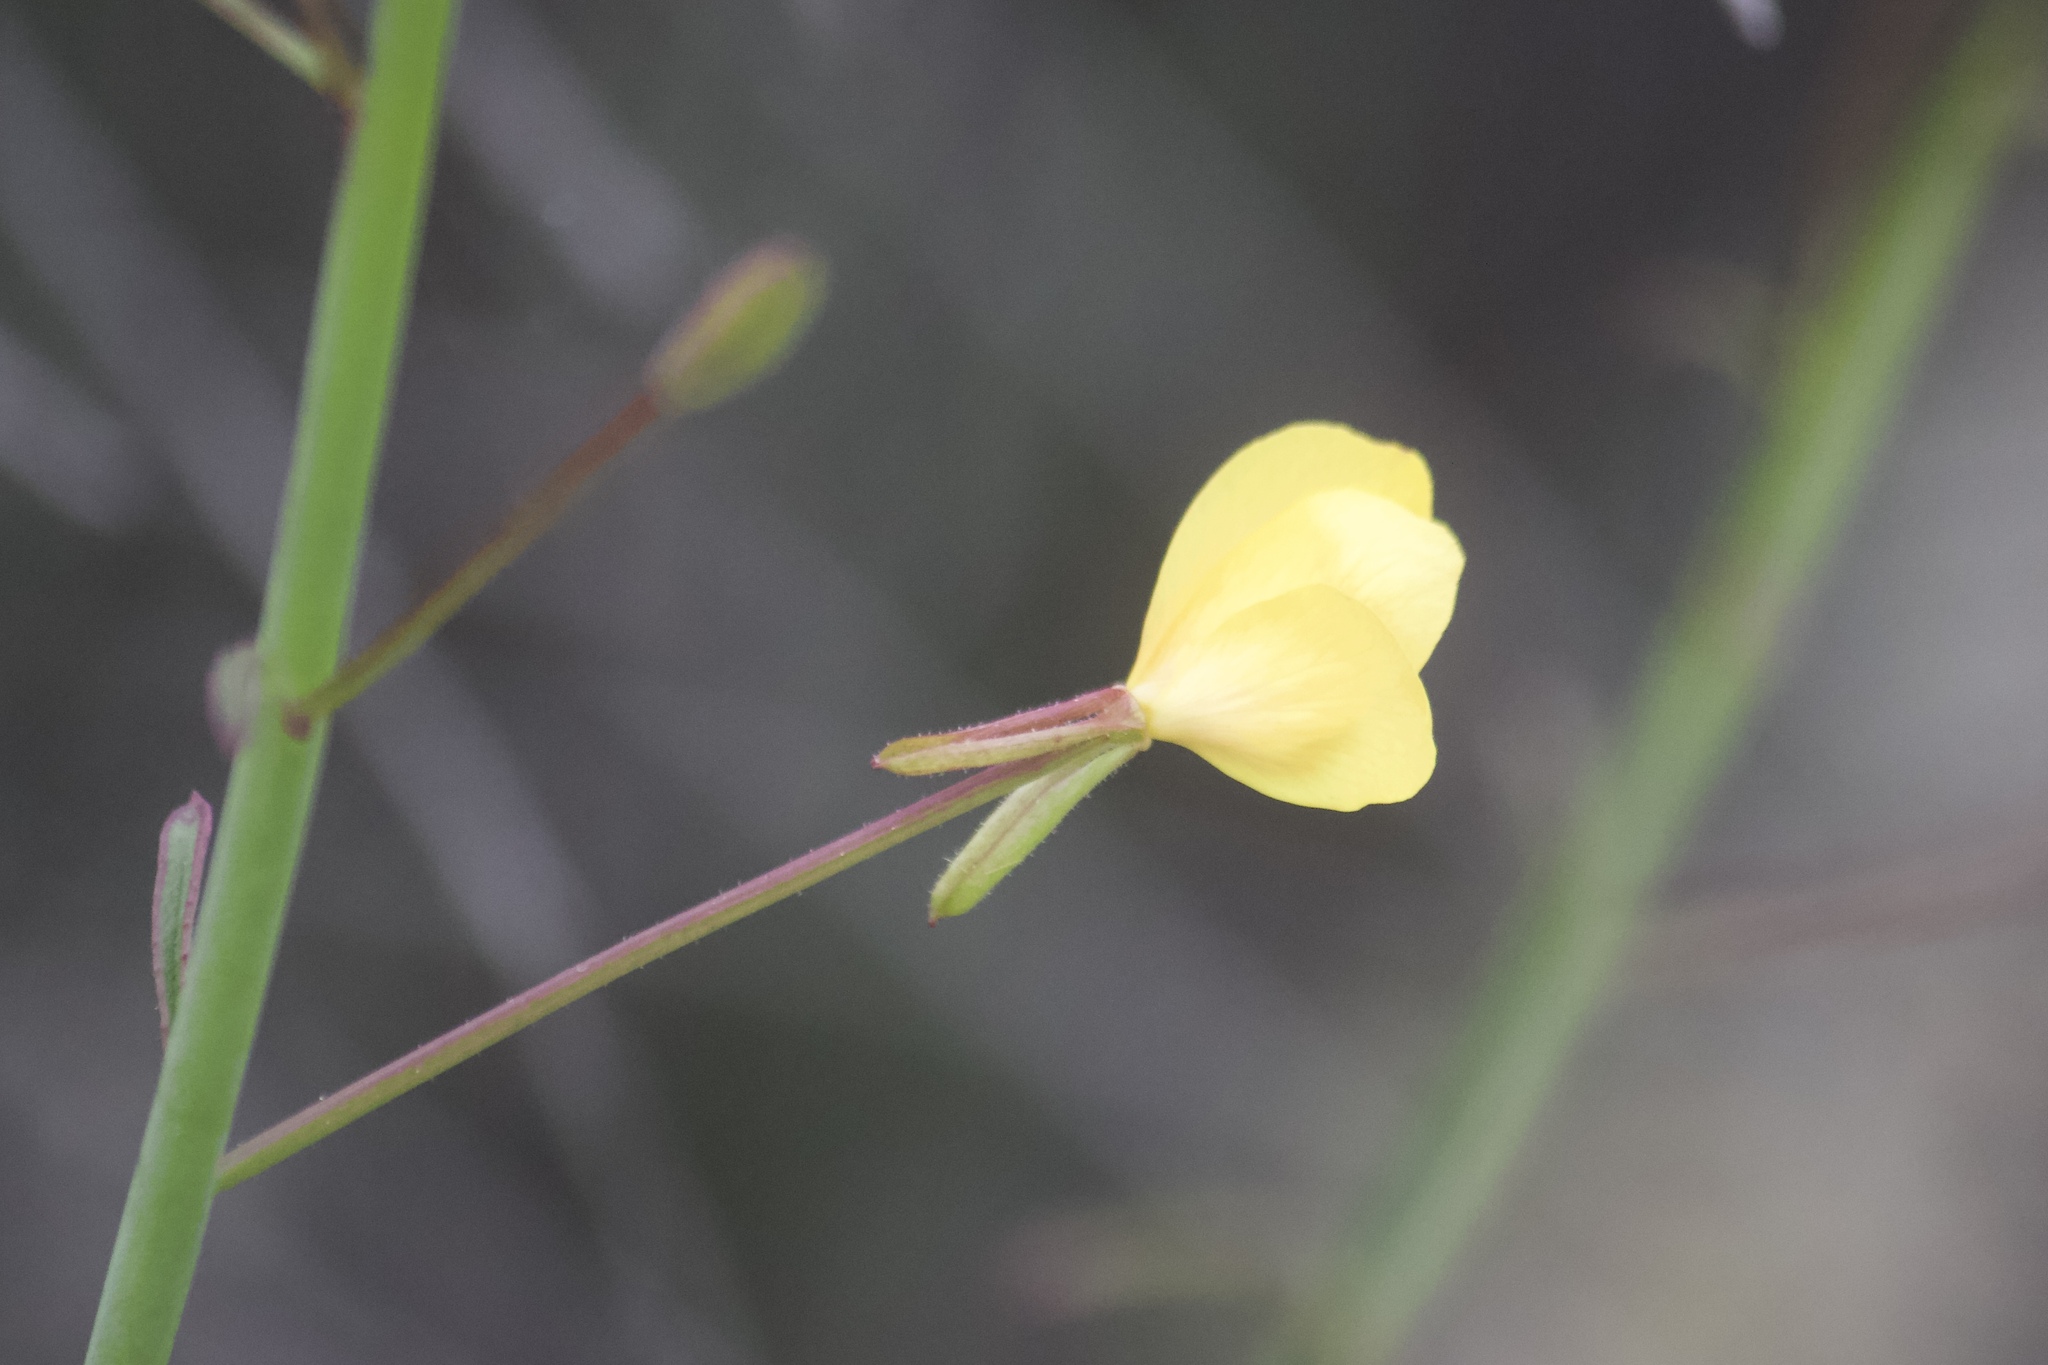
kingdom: Plantae
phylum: Tracheophyta
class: Magnoliopsida
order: Myrtales
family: Onagraceae
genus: Eulobus
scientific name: Eulobus californicus
